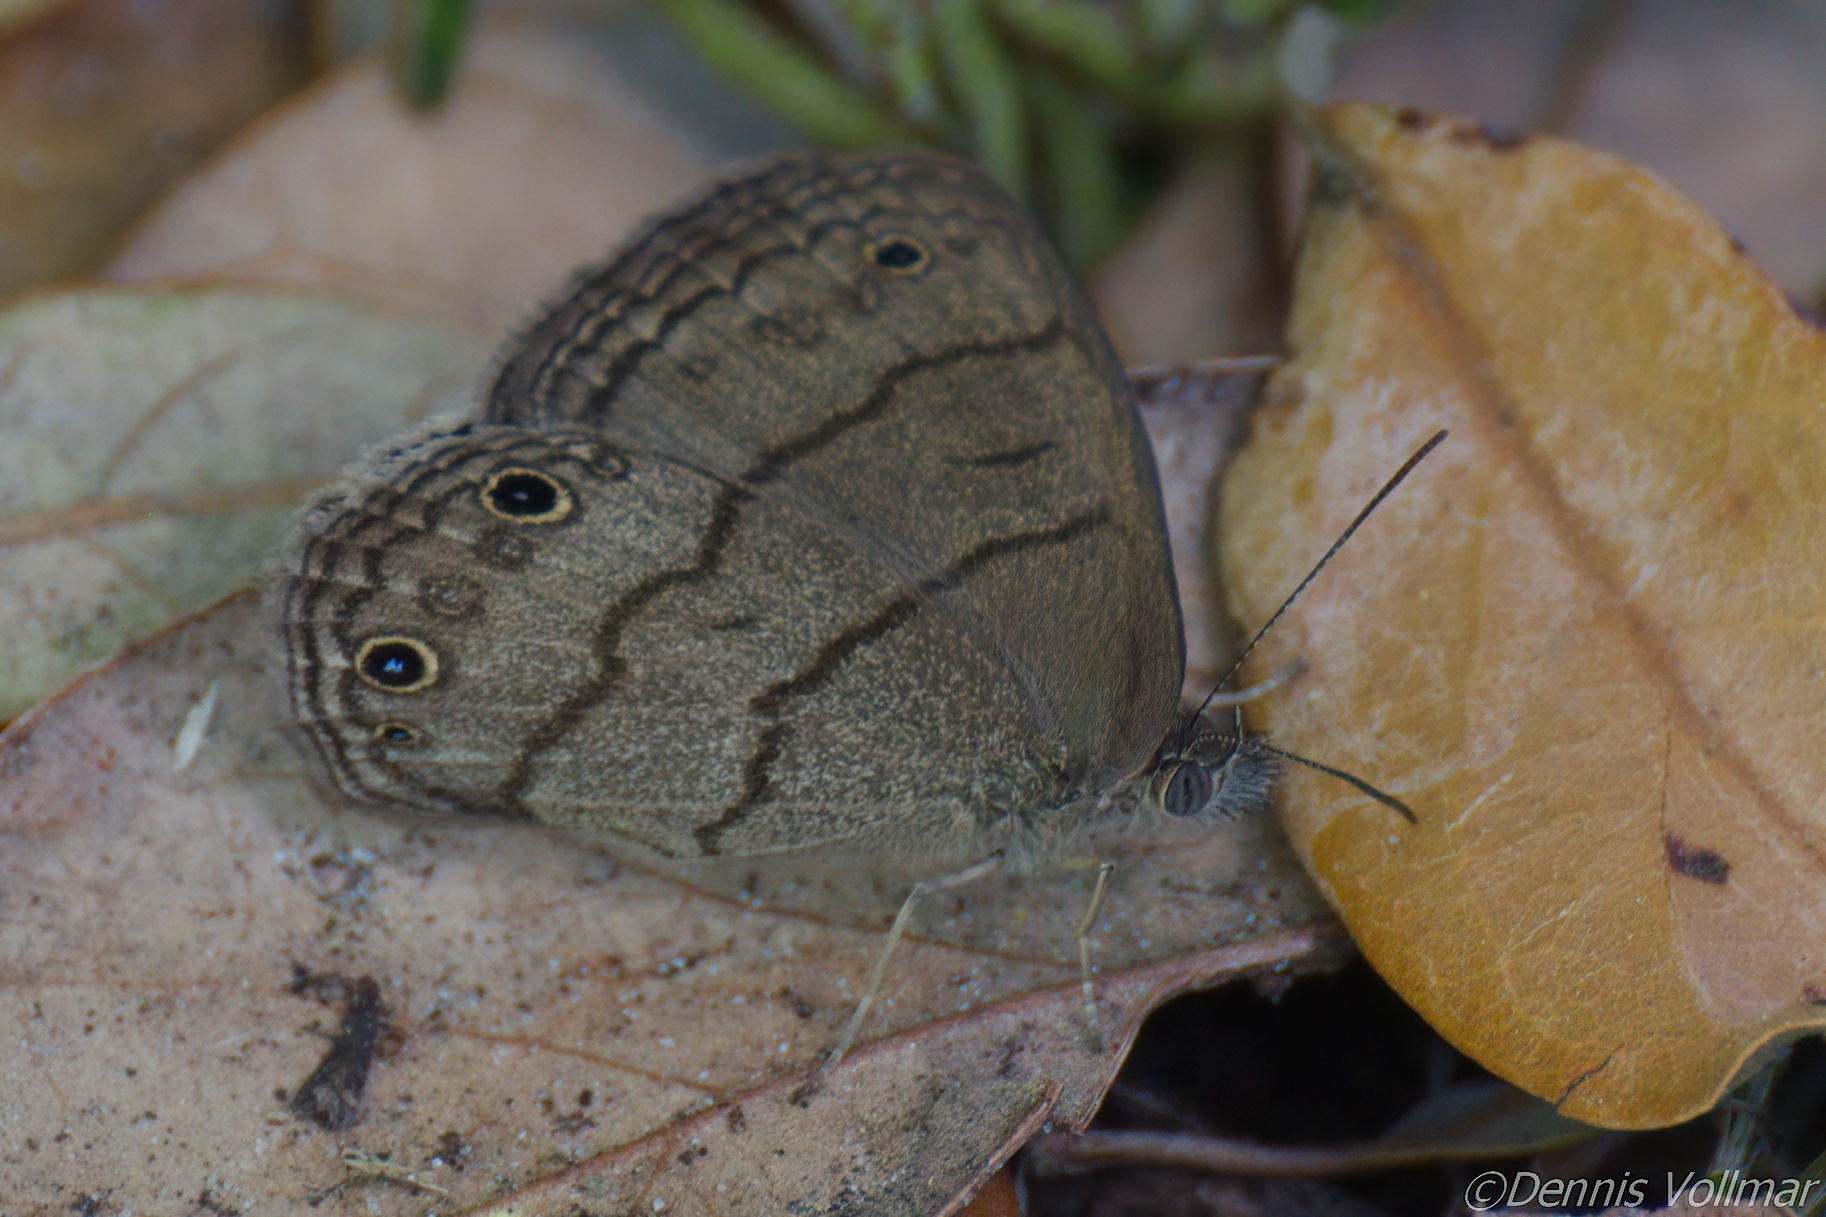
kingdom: Animalia
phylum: Arthropoda
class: Insecta
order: Lepidoptera
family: Nymphalidae
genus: Hermeuptychia
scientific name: Hermeuptychia hermes
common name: Hermes satyr
